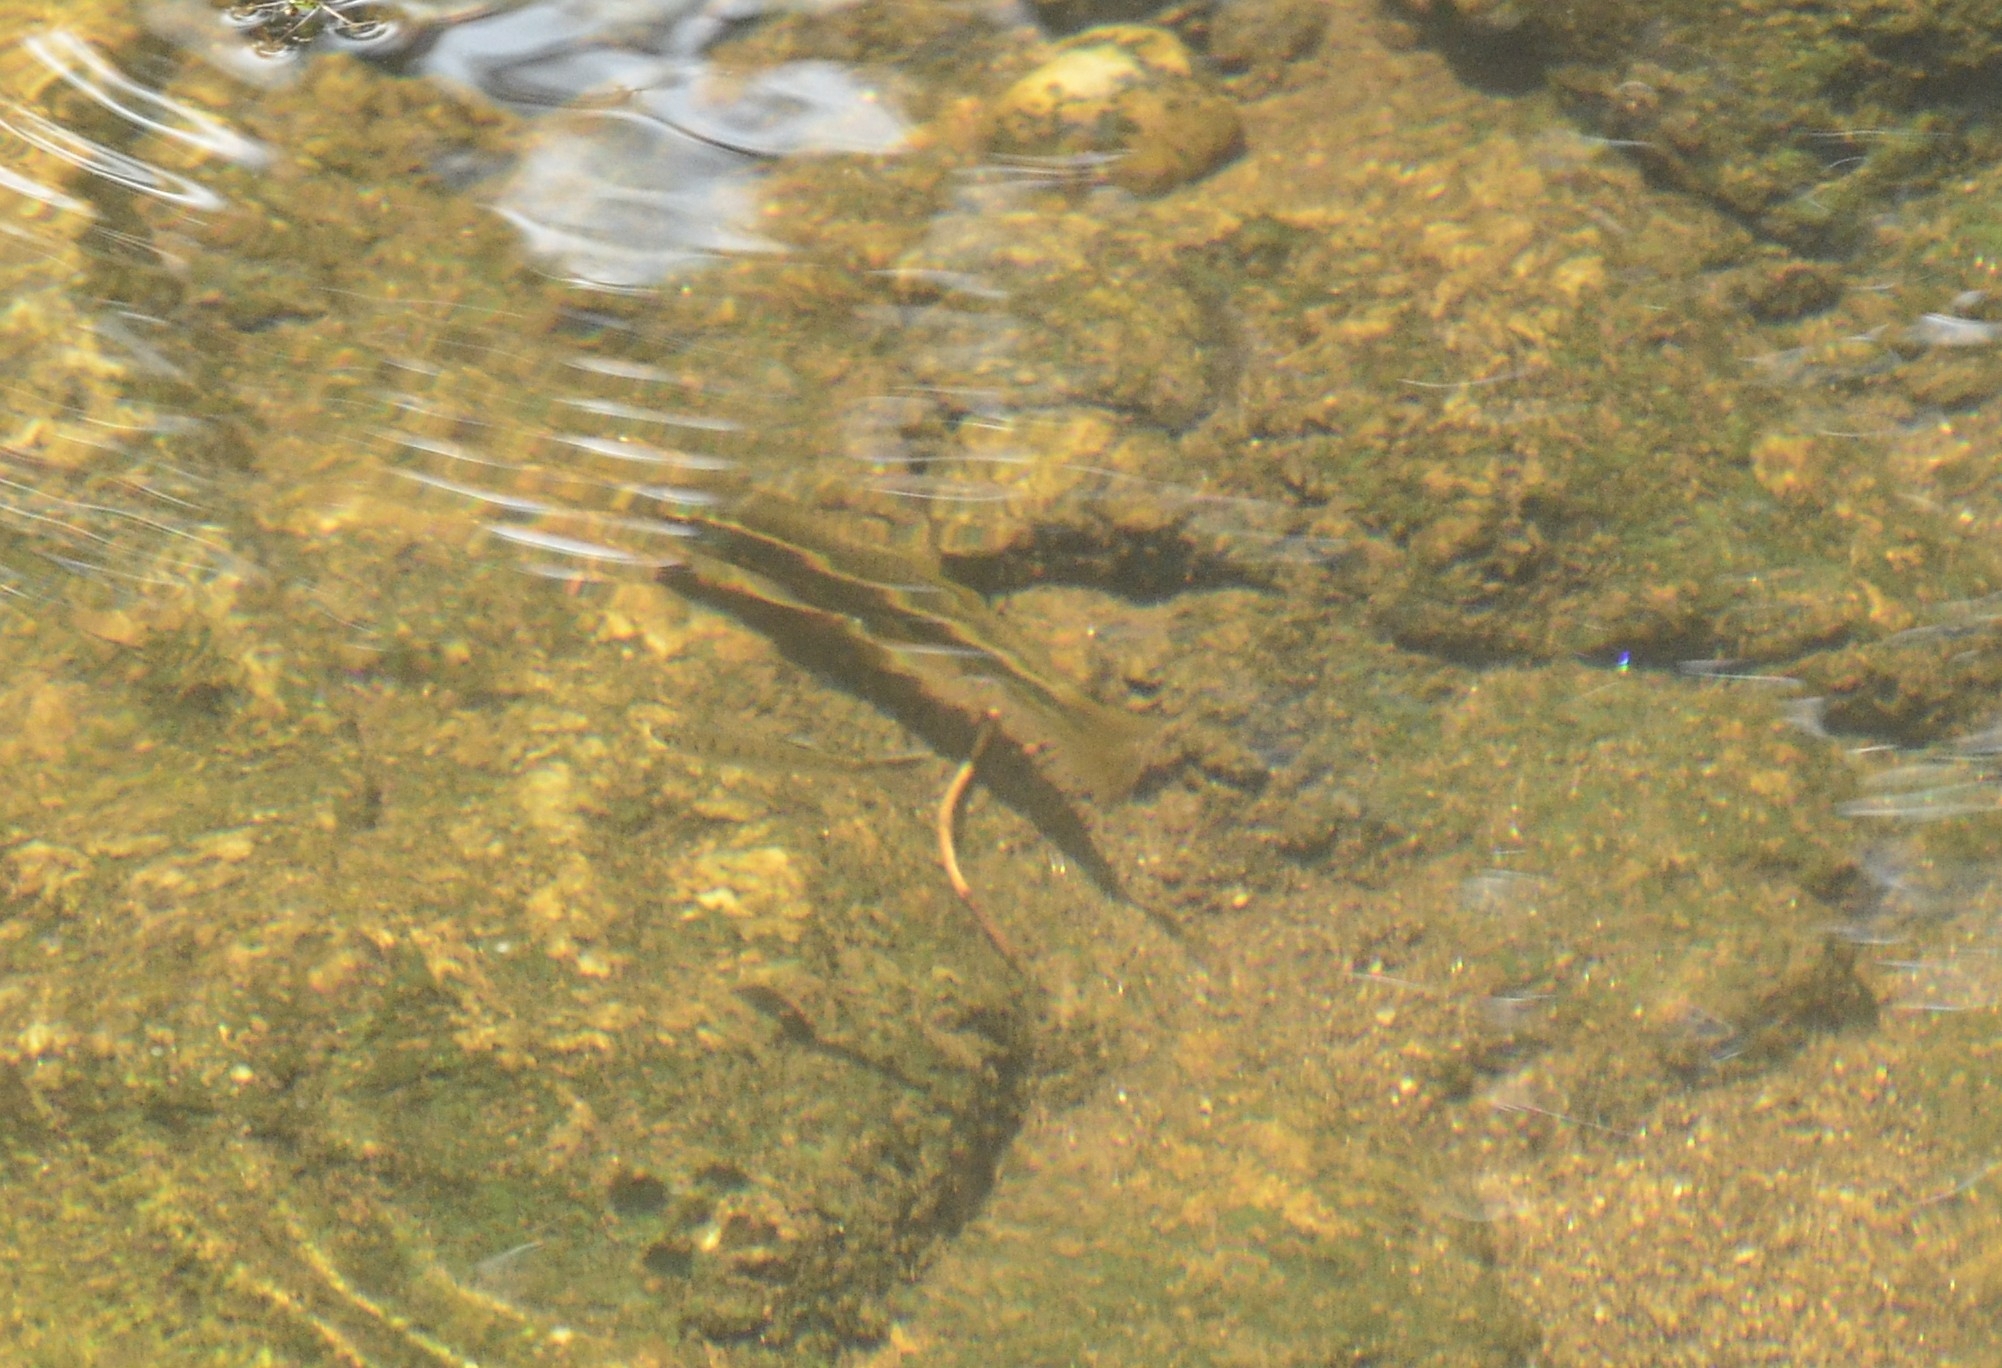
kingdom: Animalia
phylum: Chordata
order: Cypriniformes
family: Cyprinidae
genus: Garra
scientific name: Garra mullya
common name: Mullya garra
